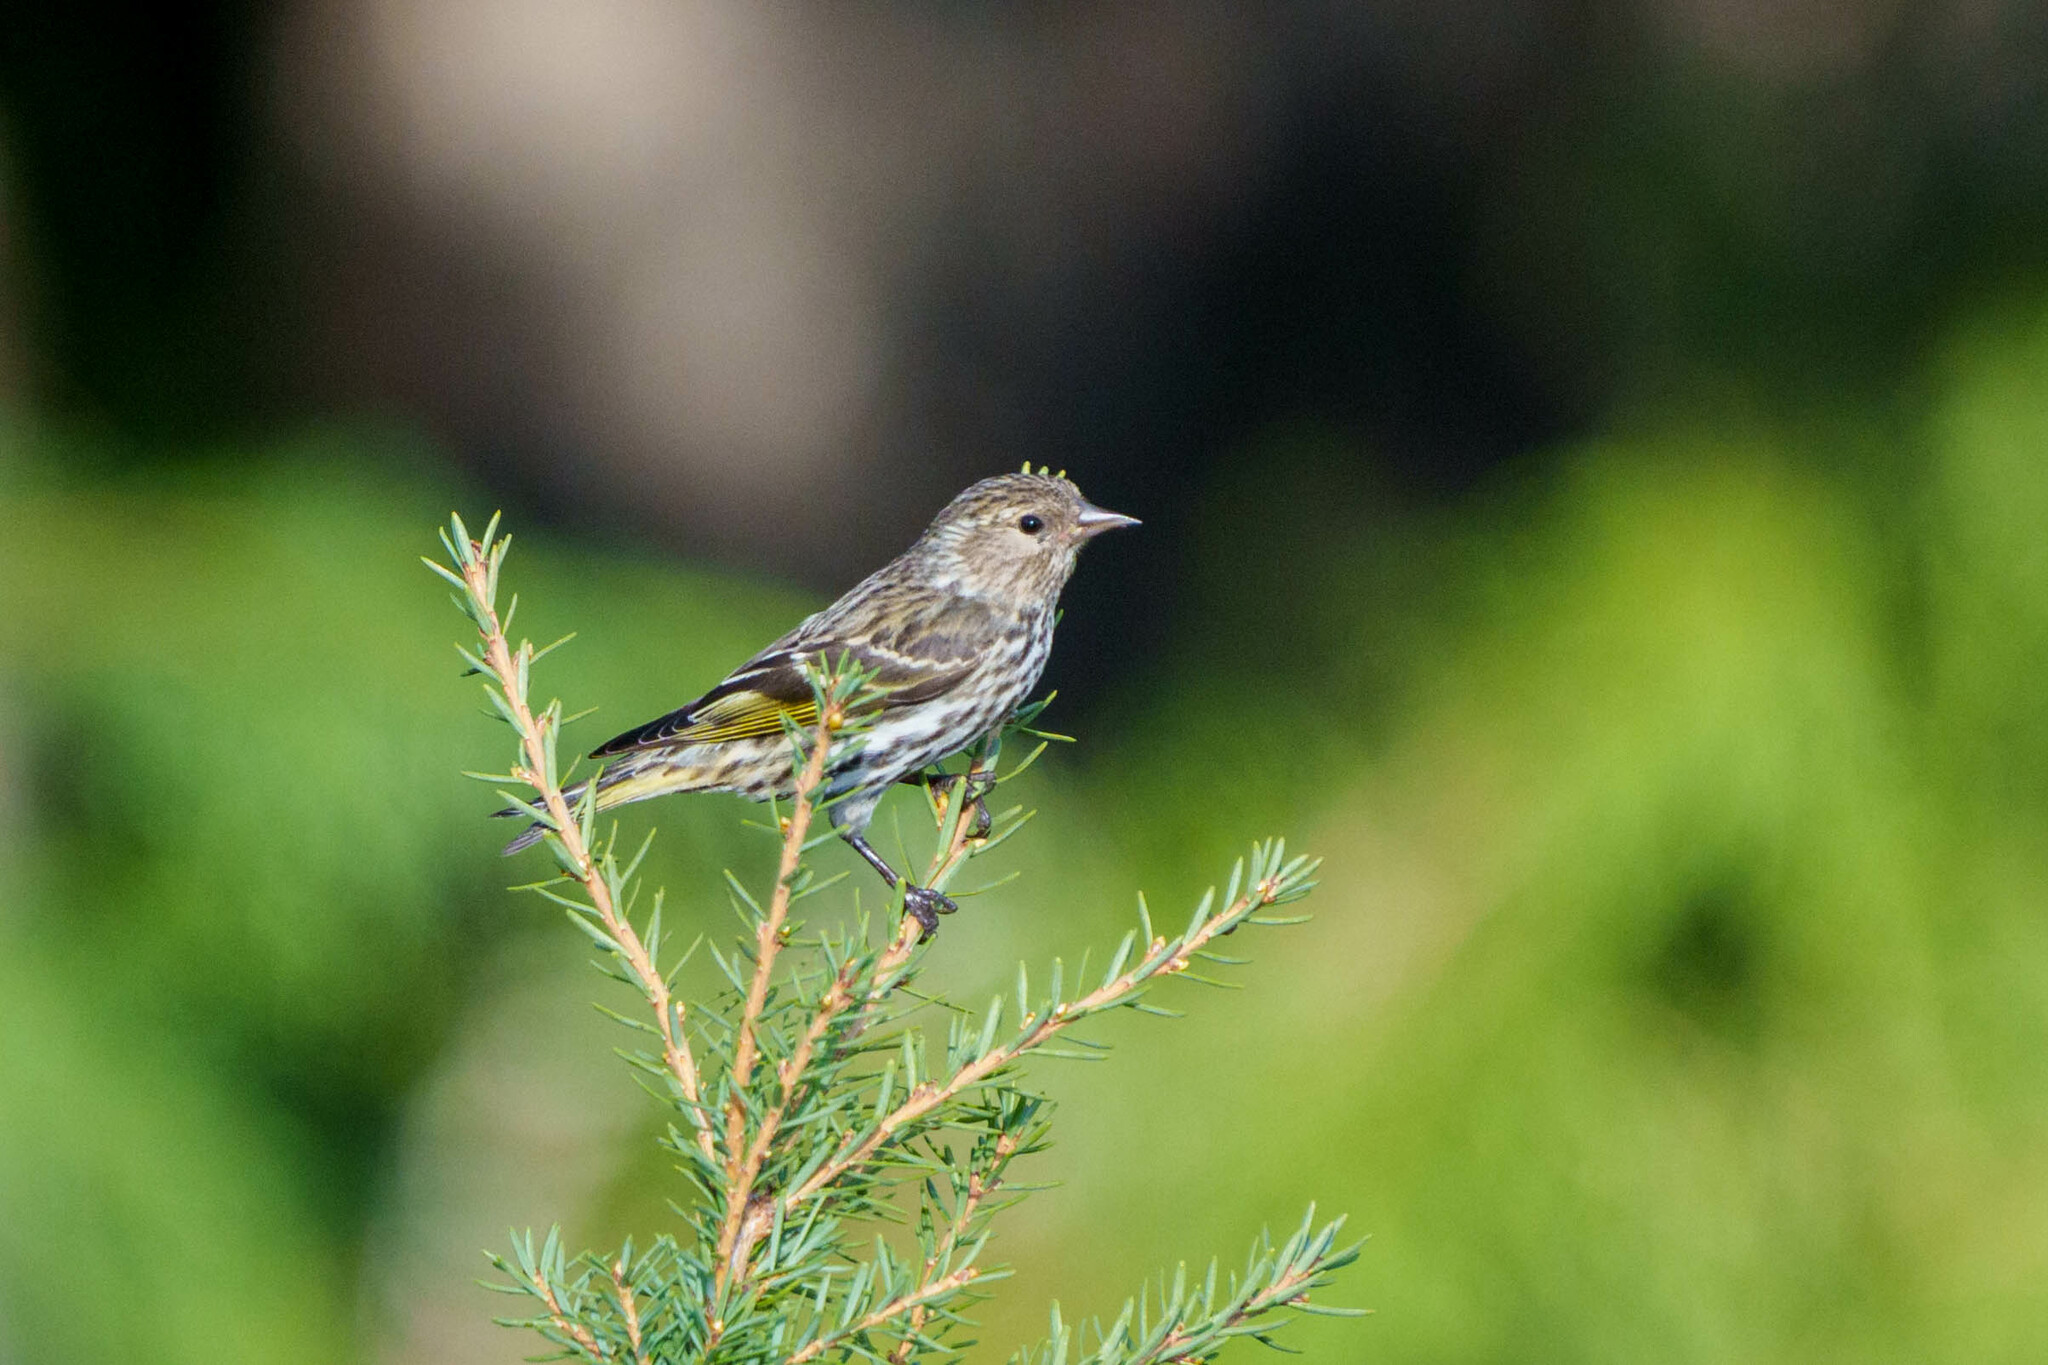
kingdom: Animalia
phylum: Chordata
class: Aves
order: Passeriformes
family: Fringillidae
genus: Spinus
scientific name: Spinus pinus
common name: Pine siskin
